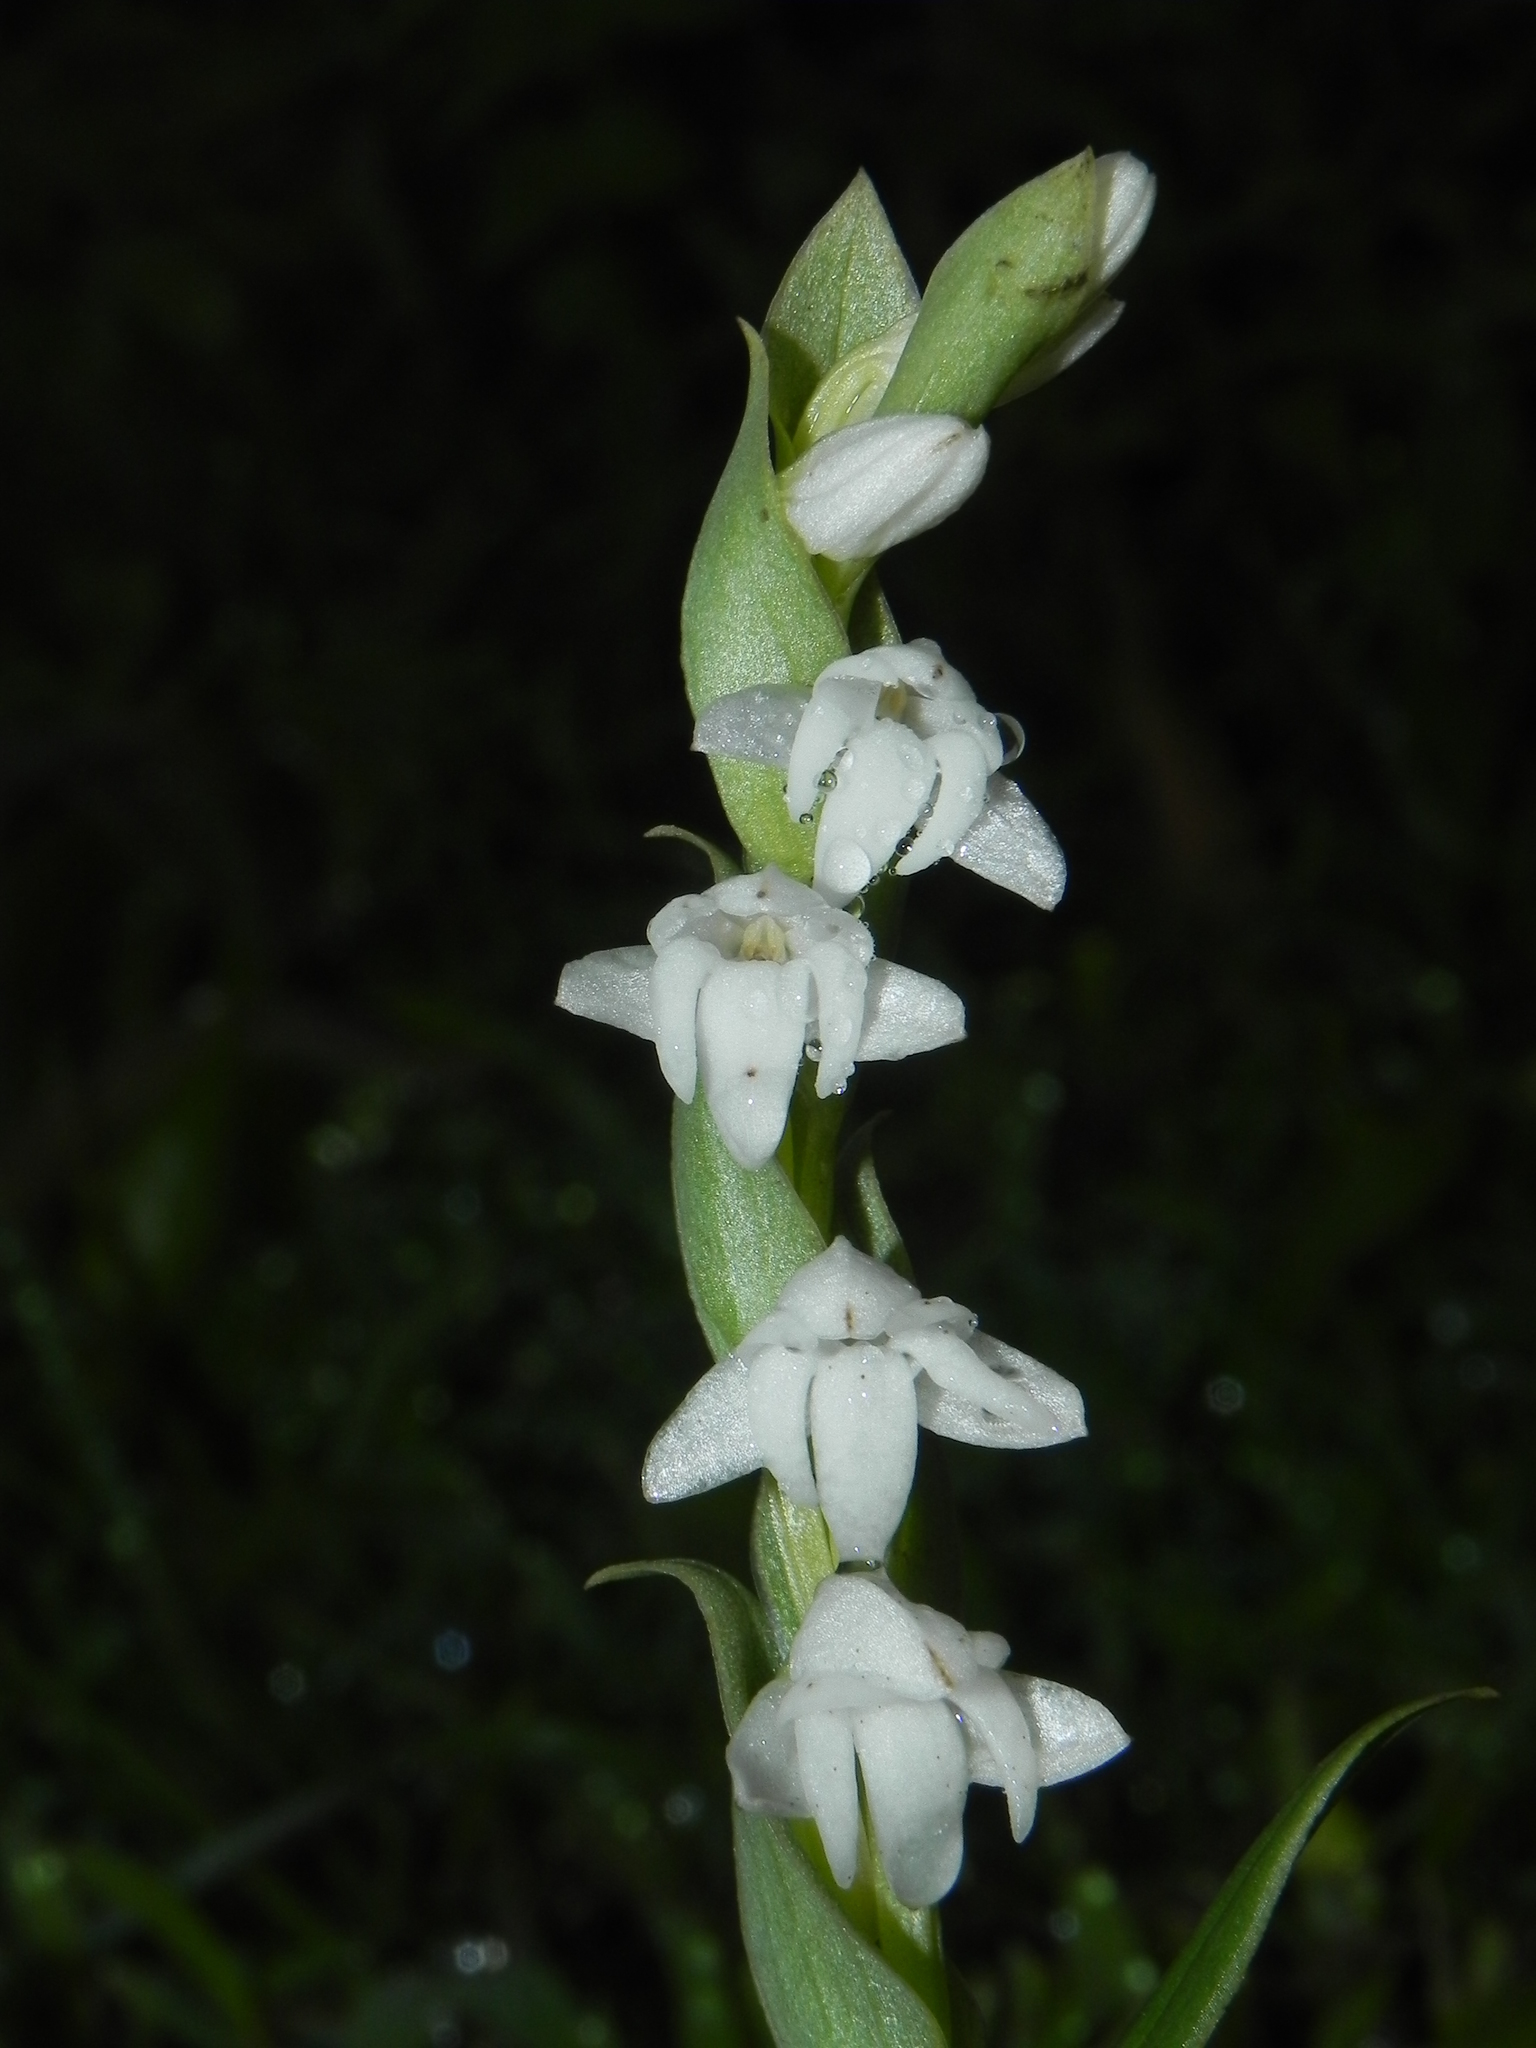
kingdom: Plantae
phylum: Tracheophyta
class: Liliopsida
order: Asparagales
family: Orchidaceae
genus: Habenaria
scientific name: Habenaria heyneana
